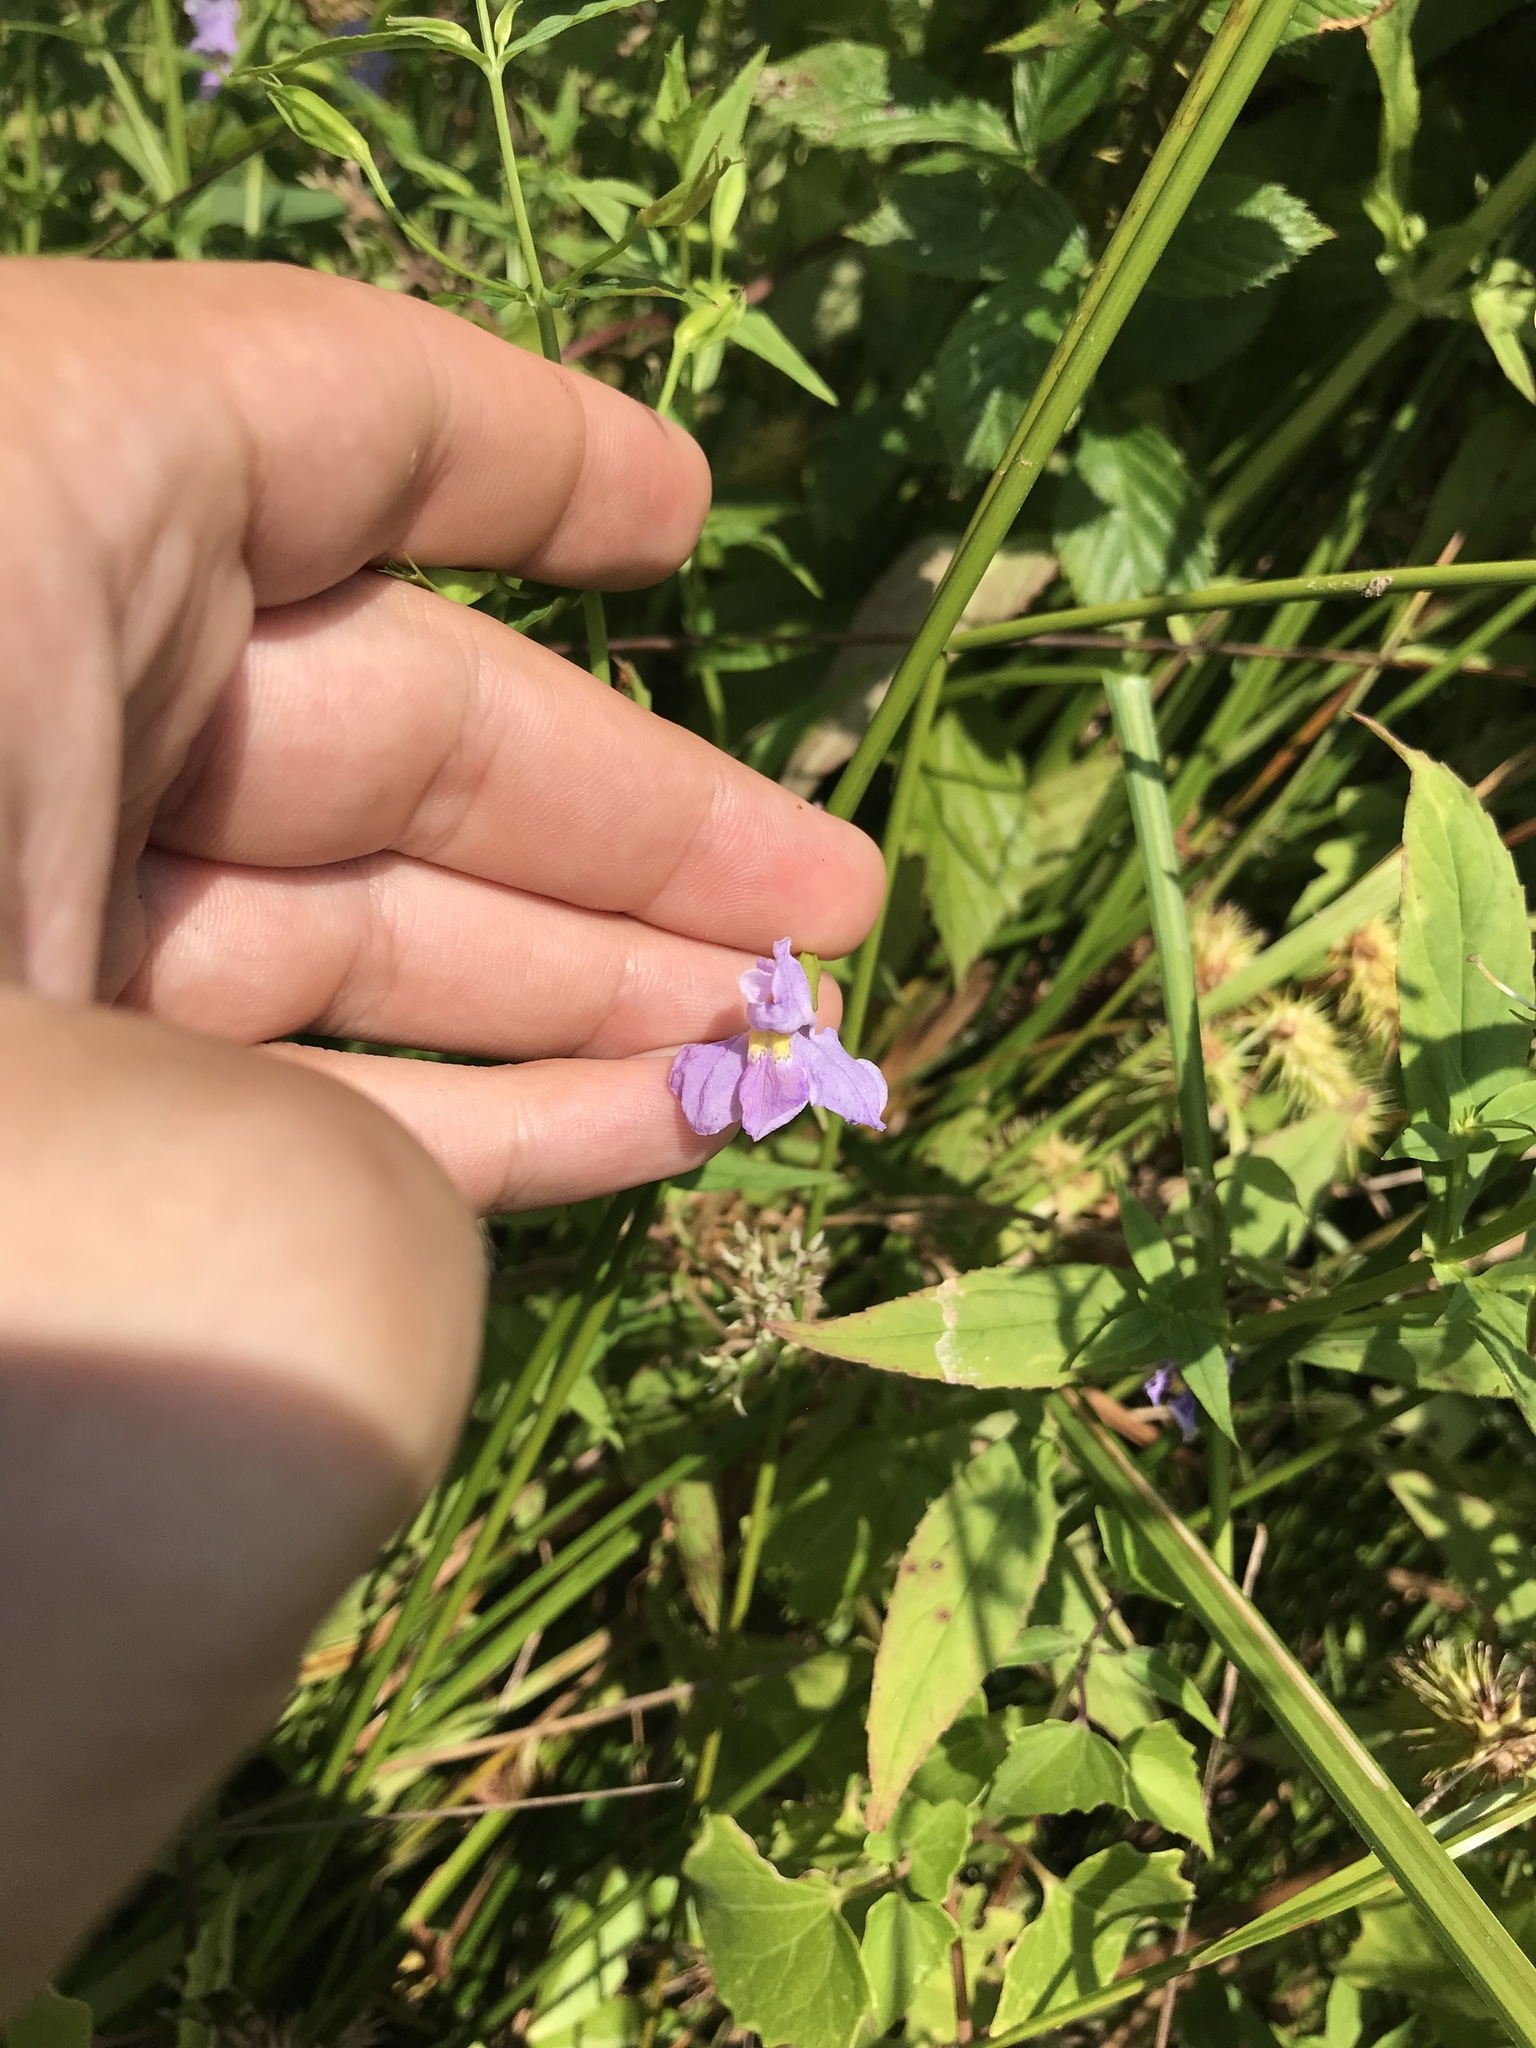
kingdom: Plantae
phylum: Tracheophyta
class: Magnoliopsida
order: Lamiales
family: Phrymaceae
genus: Mimulus
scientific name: Mimulus ringens
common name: Allegheny monkeyflower
